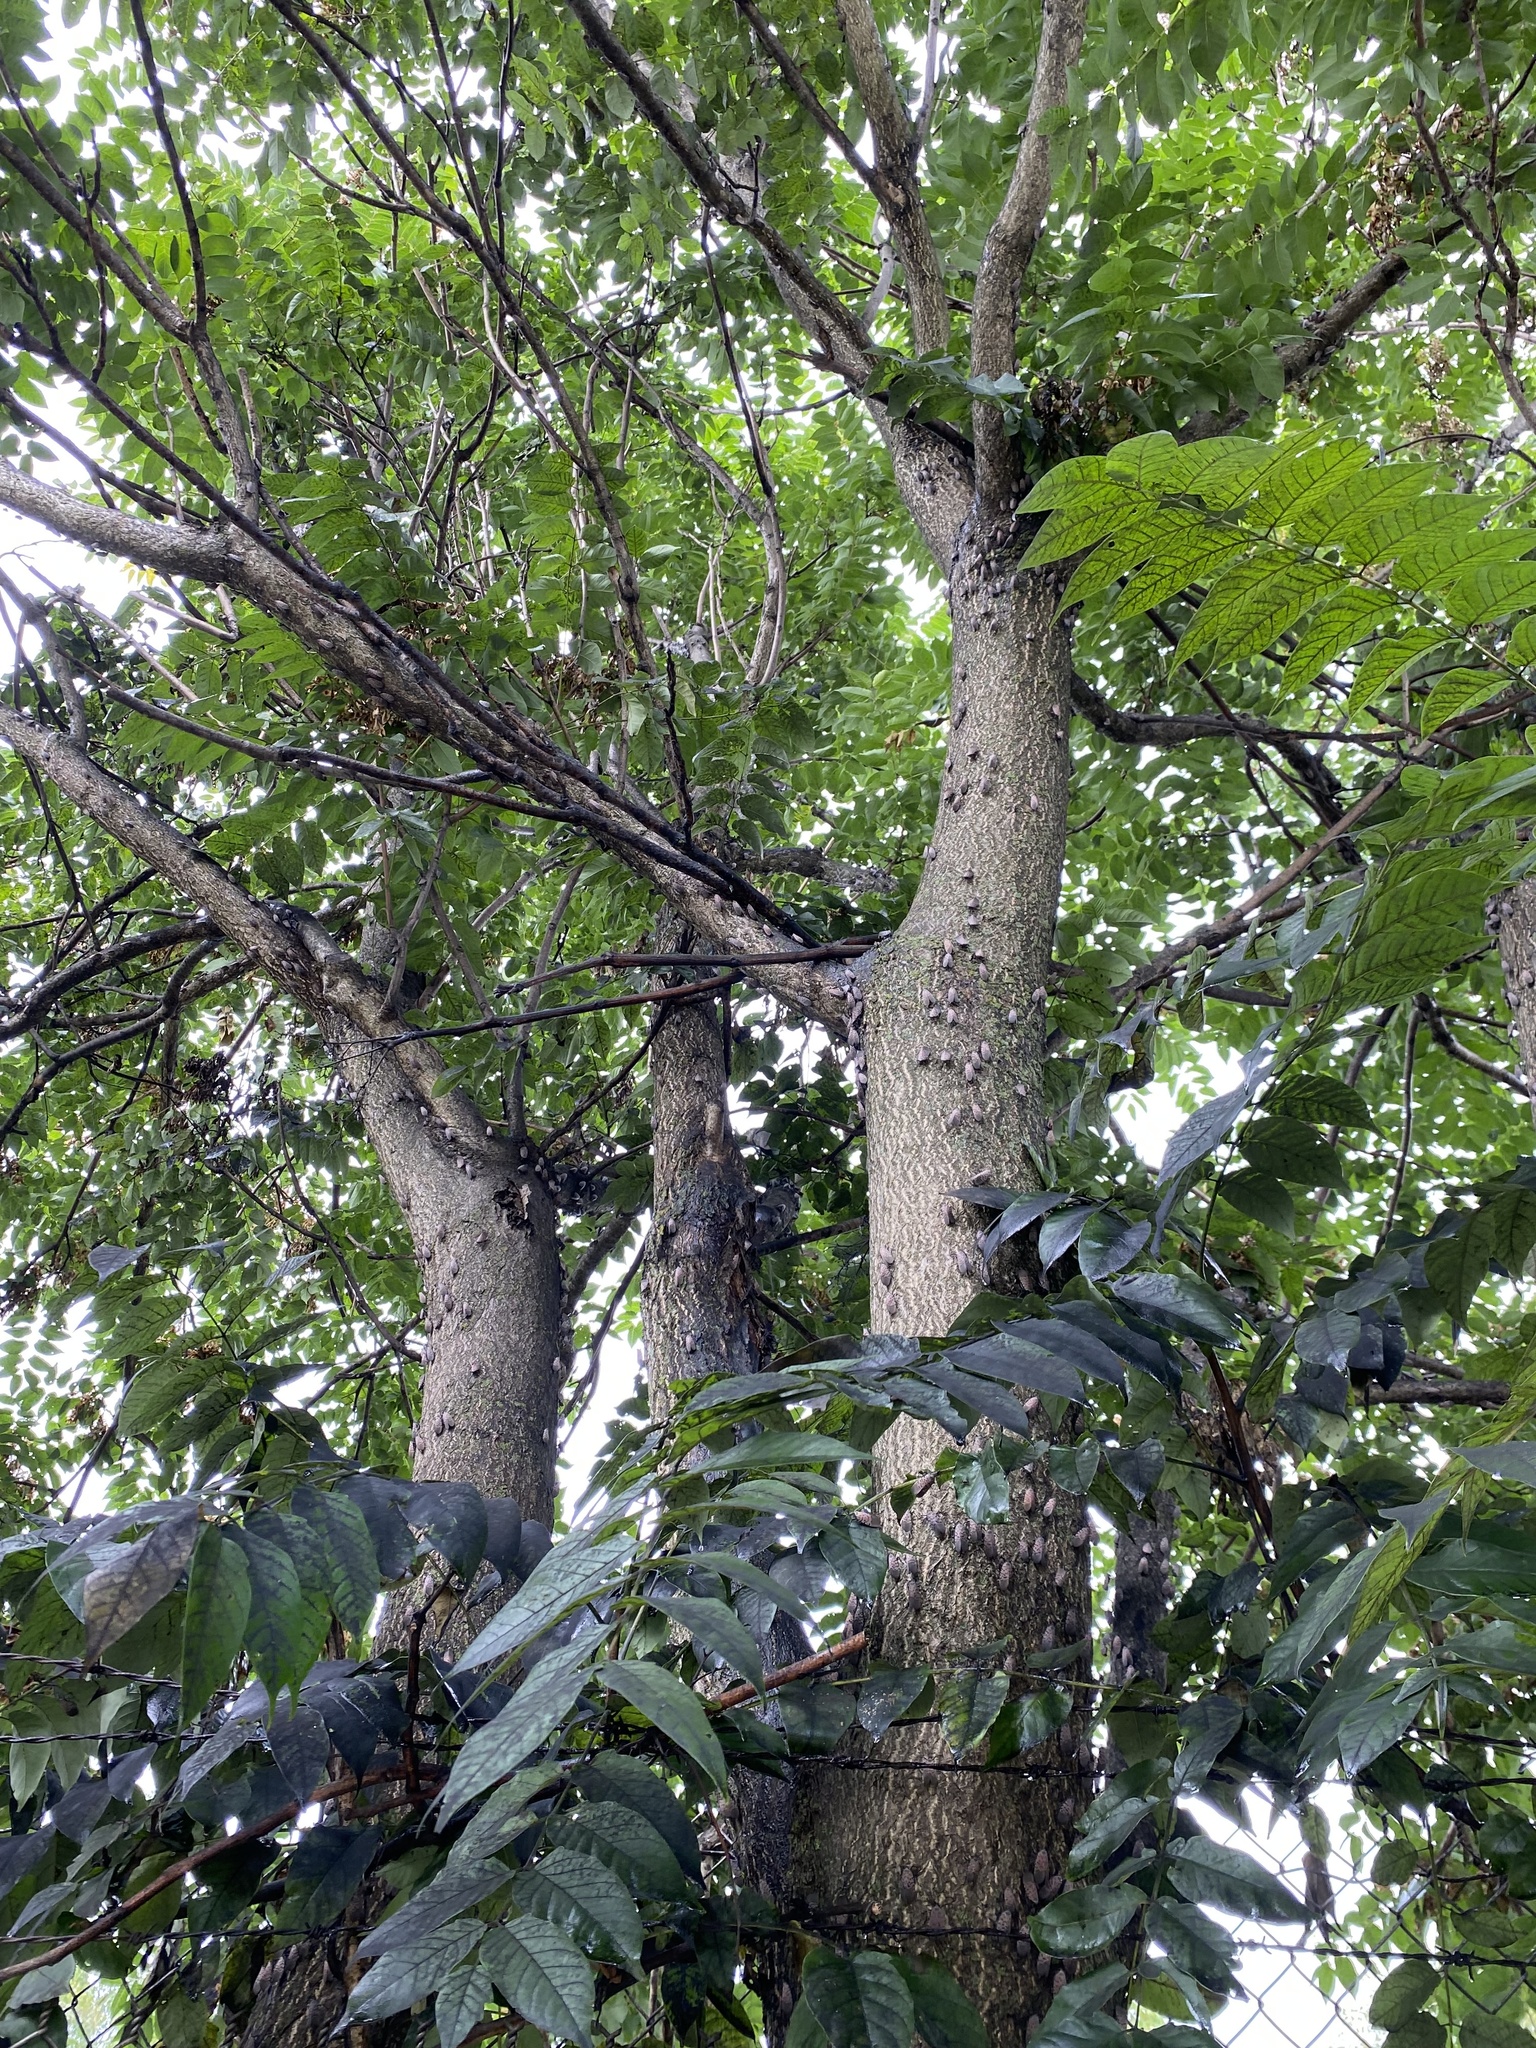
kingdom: Animalia
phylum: Arthropoda
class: Insecta
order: Hemiptera
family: Fulgoridae
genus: Lycorma
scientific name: Lycorma delicatula
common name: Spotted lanternfly
